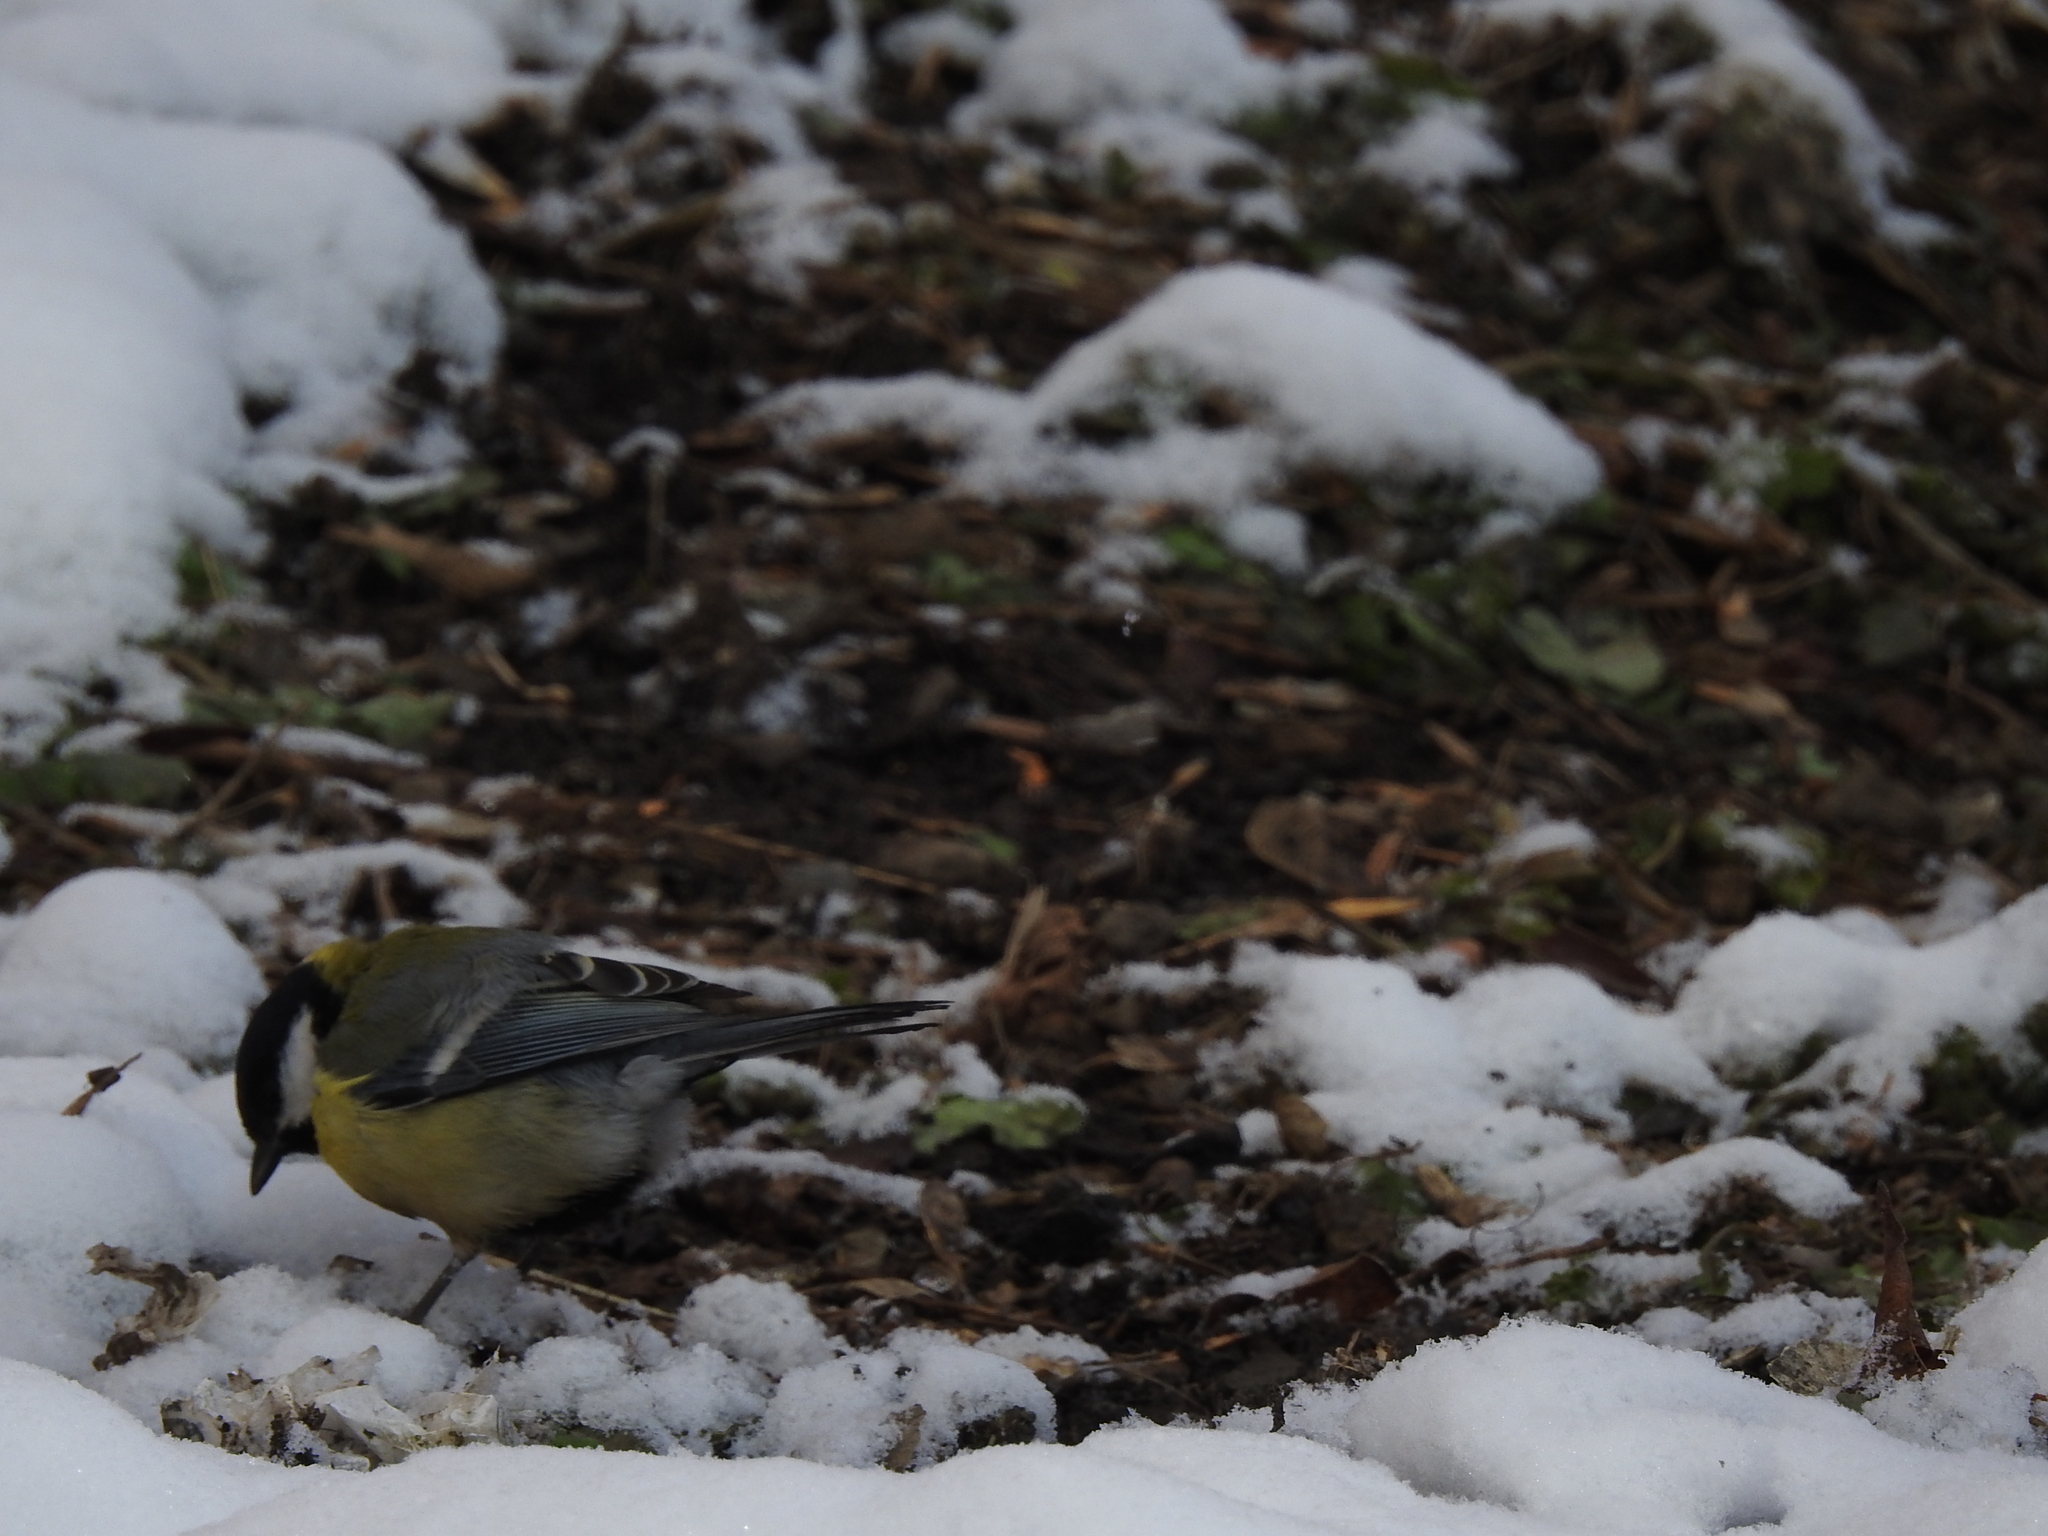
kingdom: Animalia
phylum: Chordata
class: Aves
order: Passeriformes
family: Paridae
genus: Parus
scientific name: Parus major
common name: Great tit
